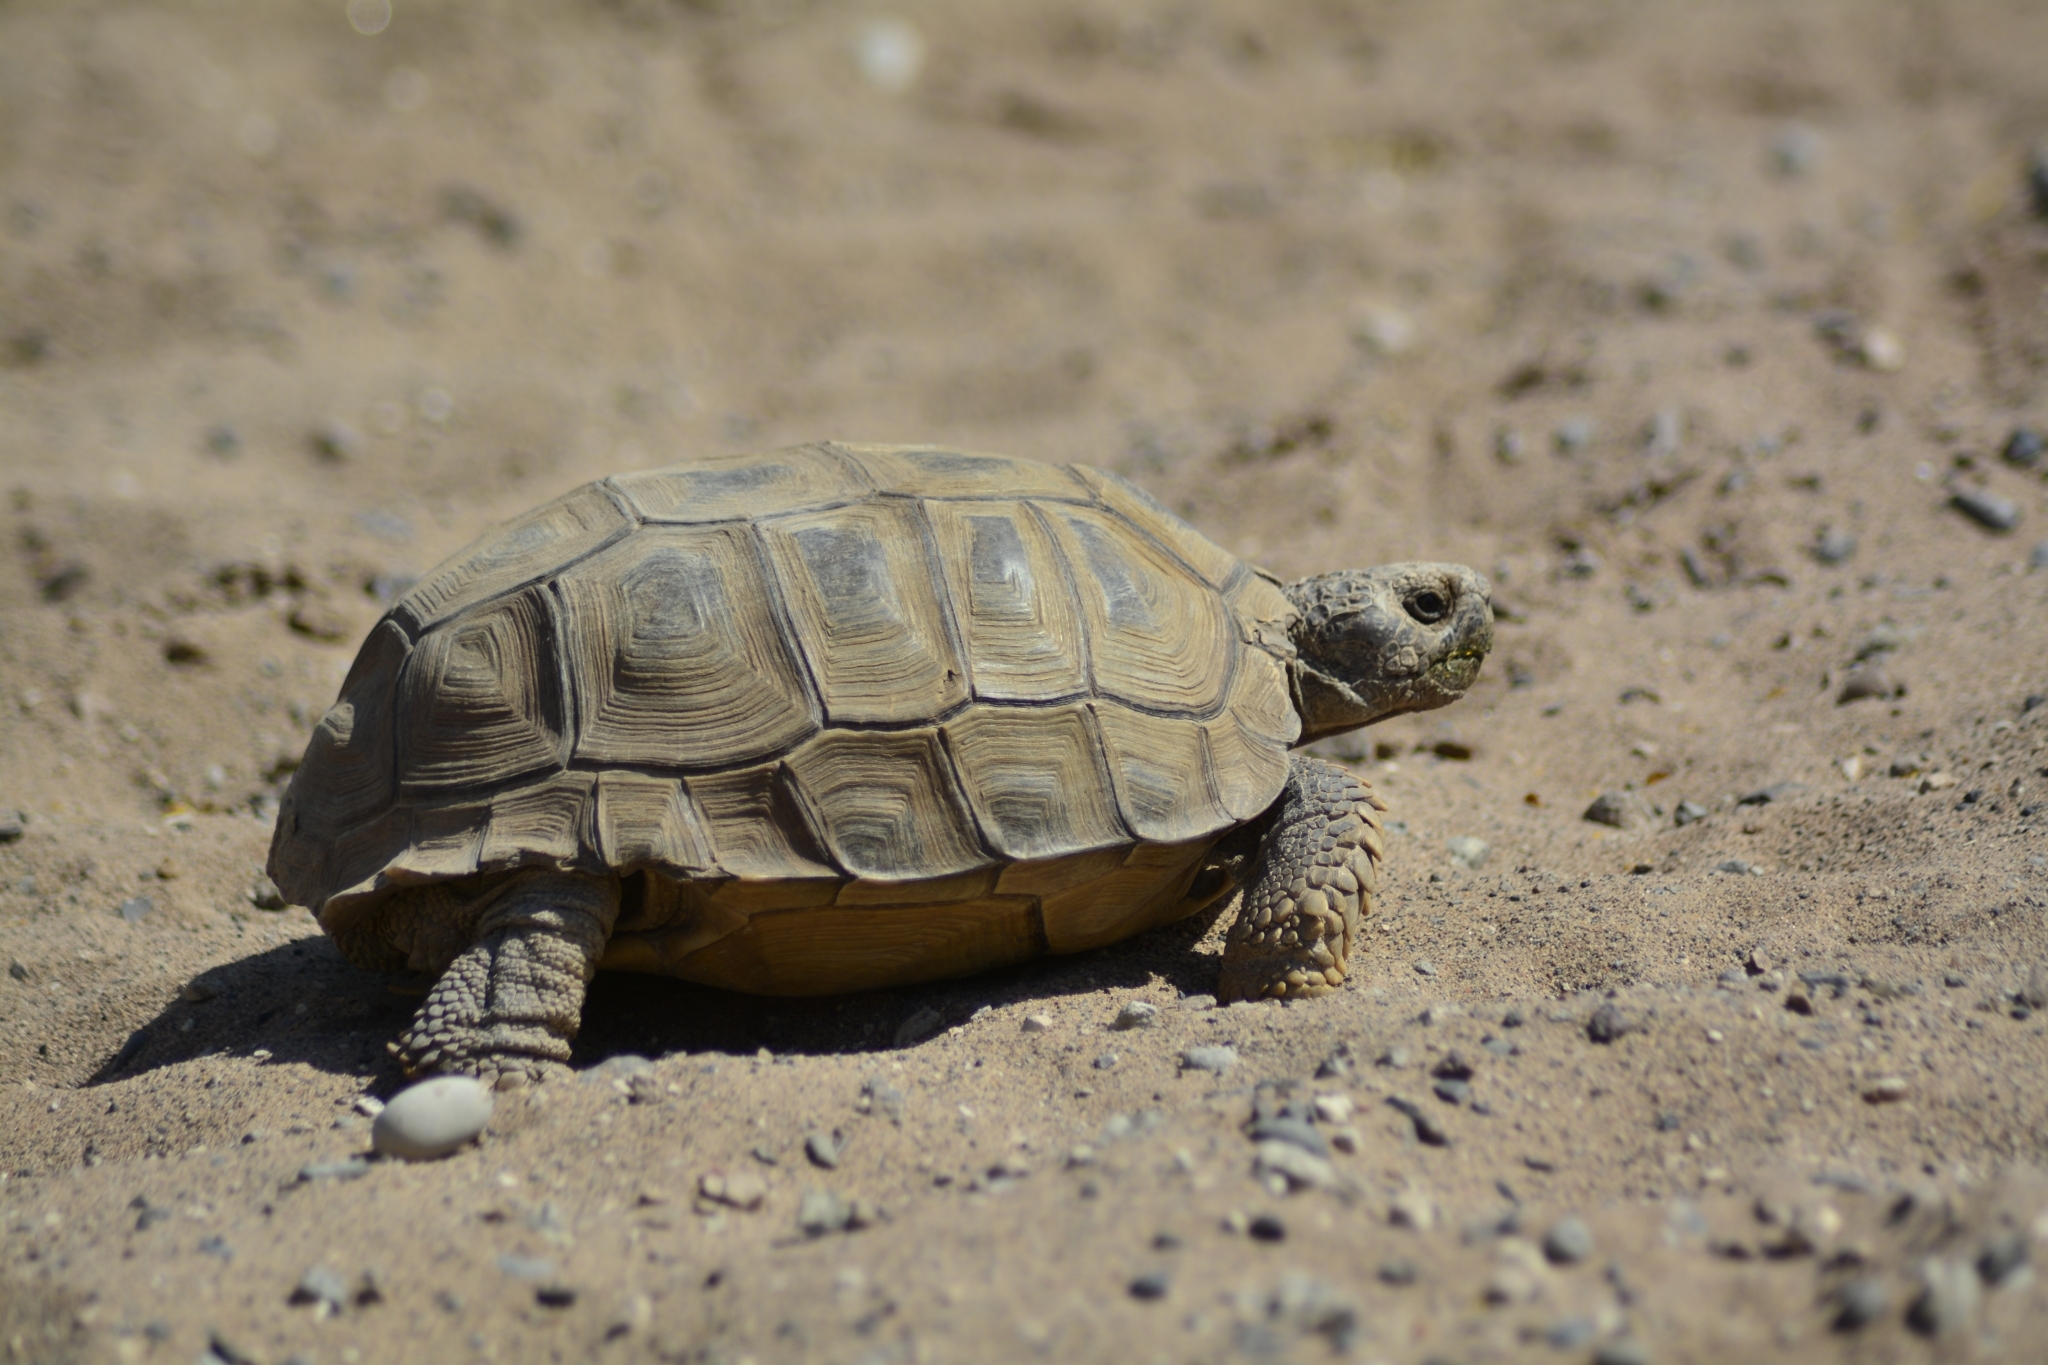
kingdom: Animalia
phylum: Chordata
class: Testudines
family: Testudinidae
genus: Chelonoidis
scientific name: Chelonoidis chilensis
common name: Chaco tortoise
